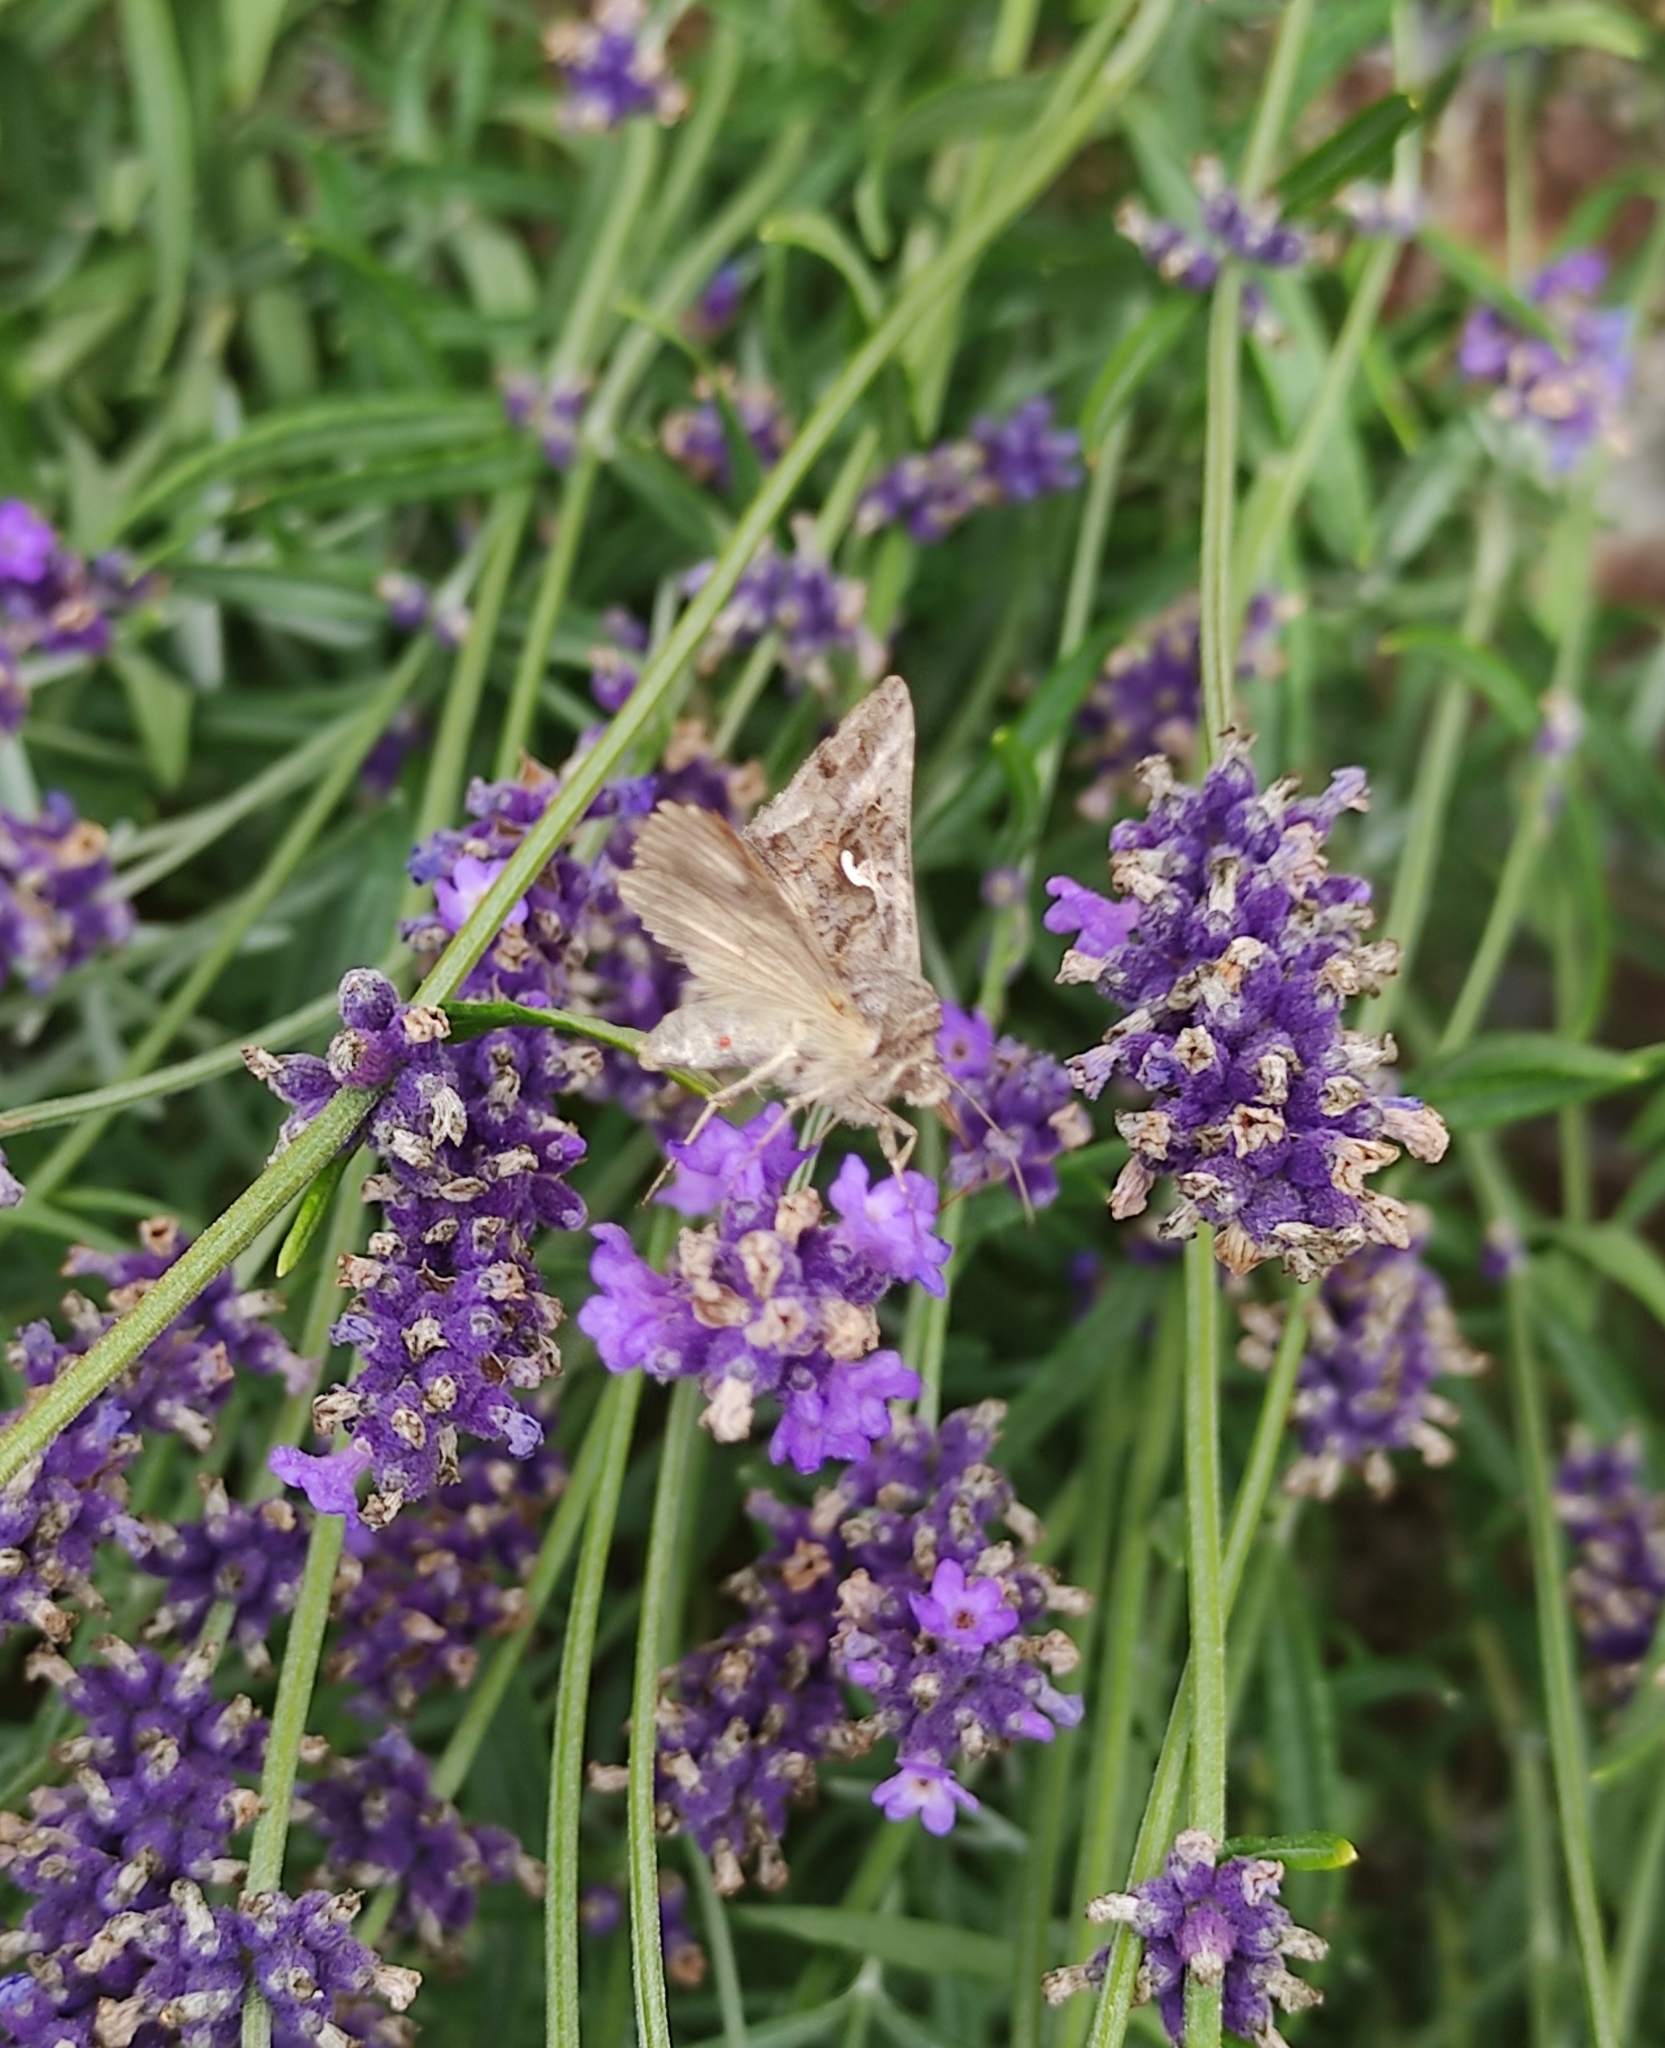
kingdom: Animalia
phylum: Arthropoda
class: Insecta
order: Lepidoptera
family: Noctuidae
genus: Autographa
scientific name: Autographa gamma
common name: Silver y
